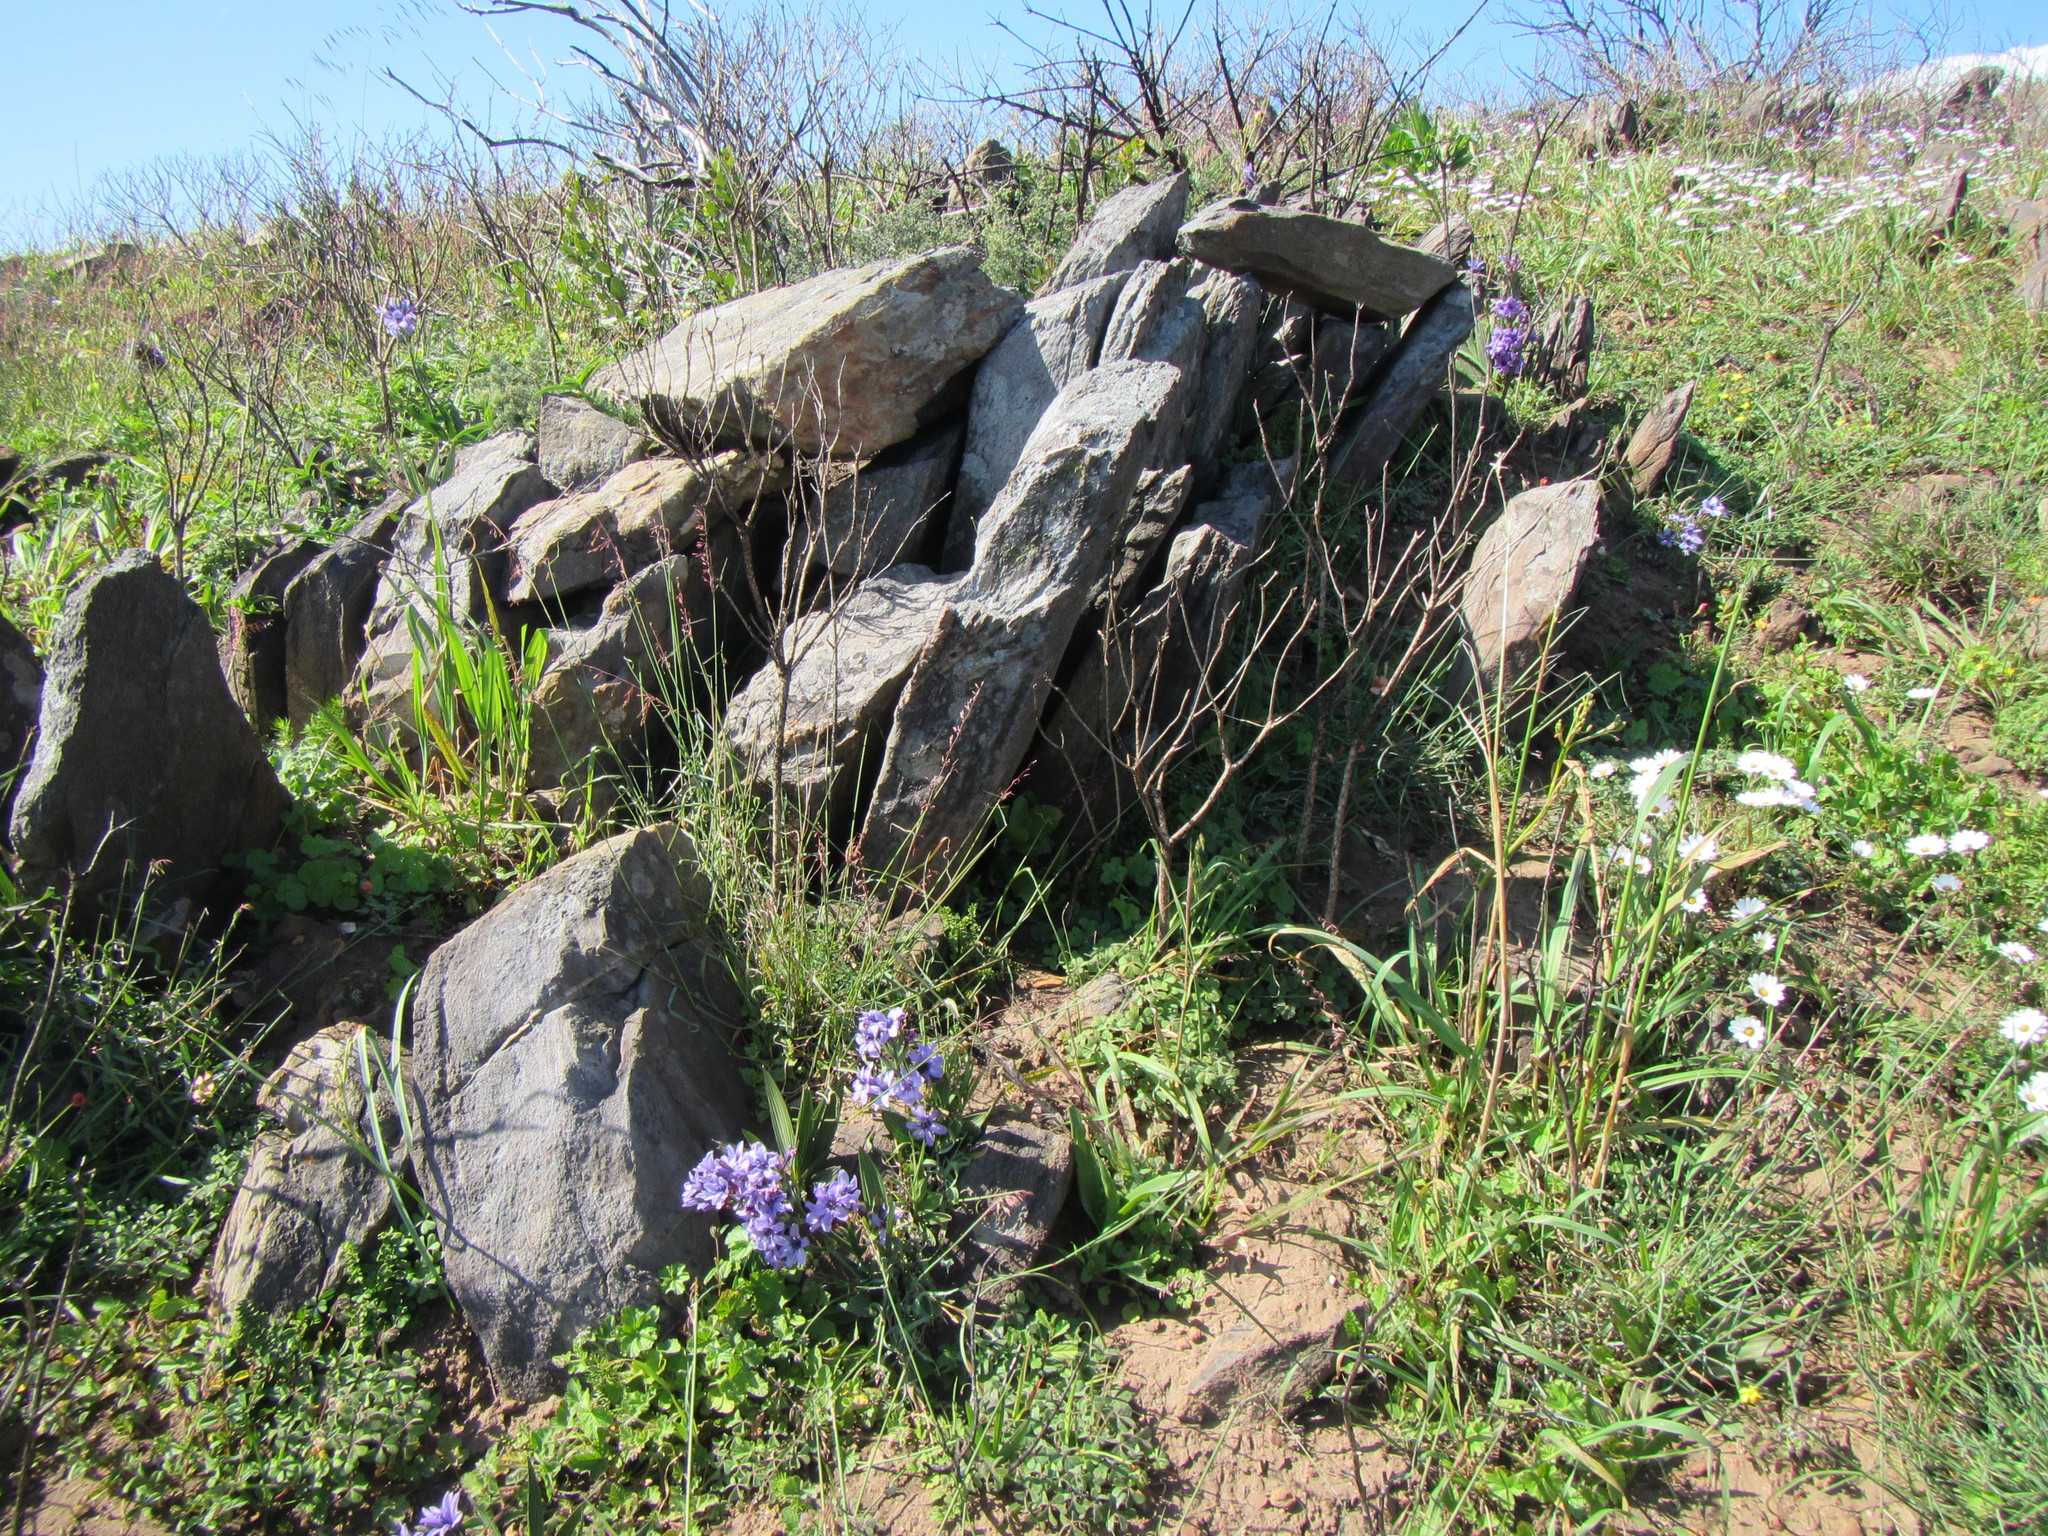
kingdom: Plantae
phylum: Tracheophyta
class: Liliopsida
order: Asparagales
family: Iridaceae
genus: Babiana
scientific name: Babiana fragrans
